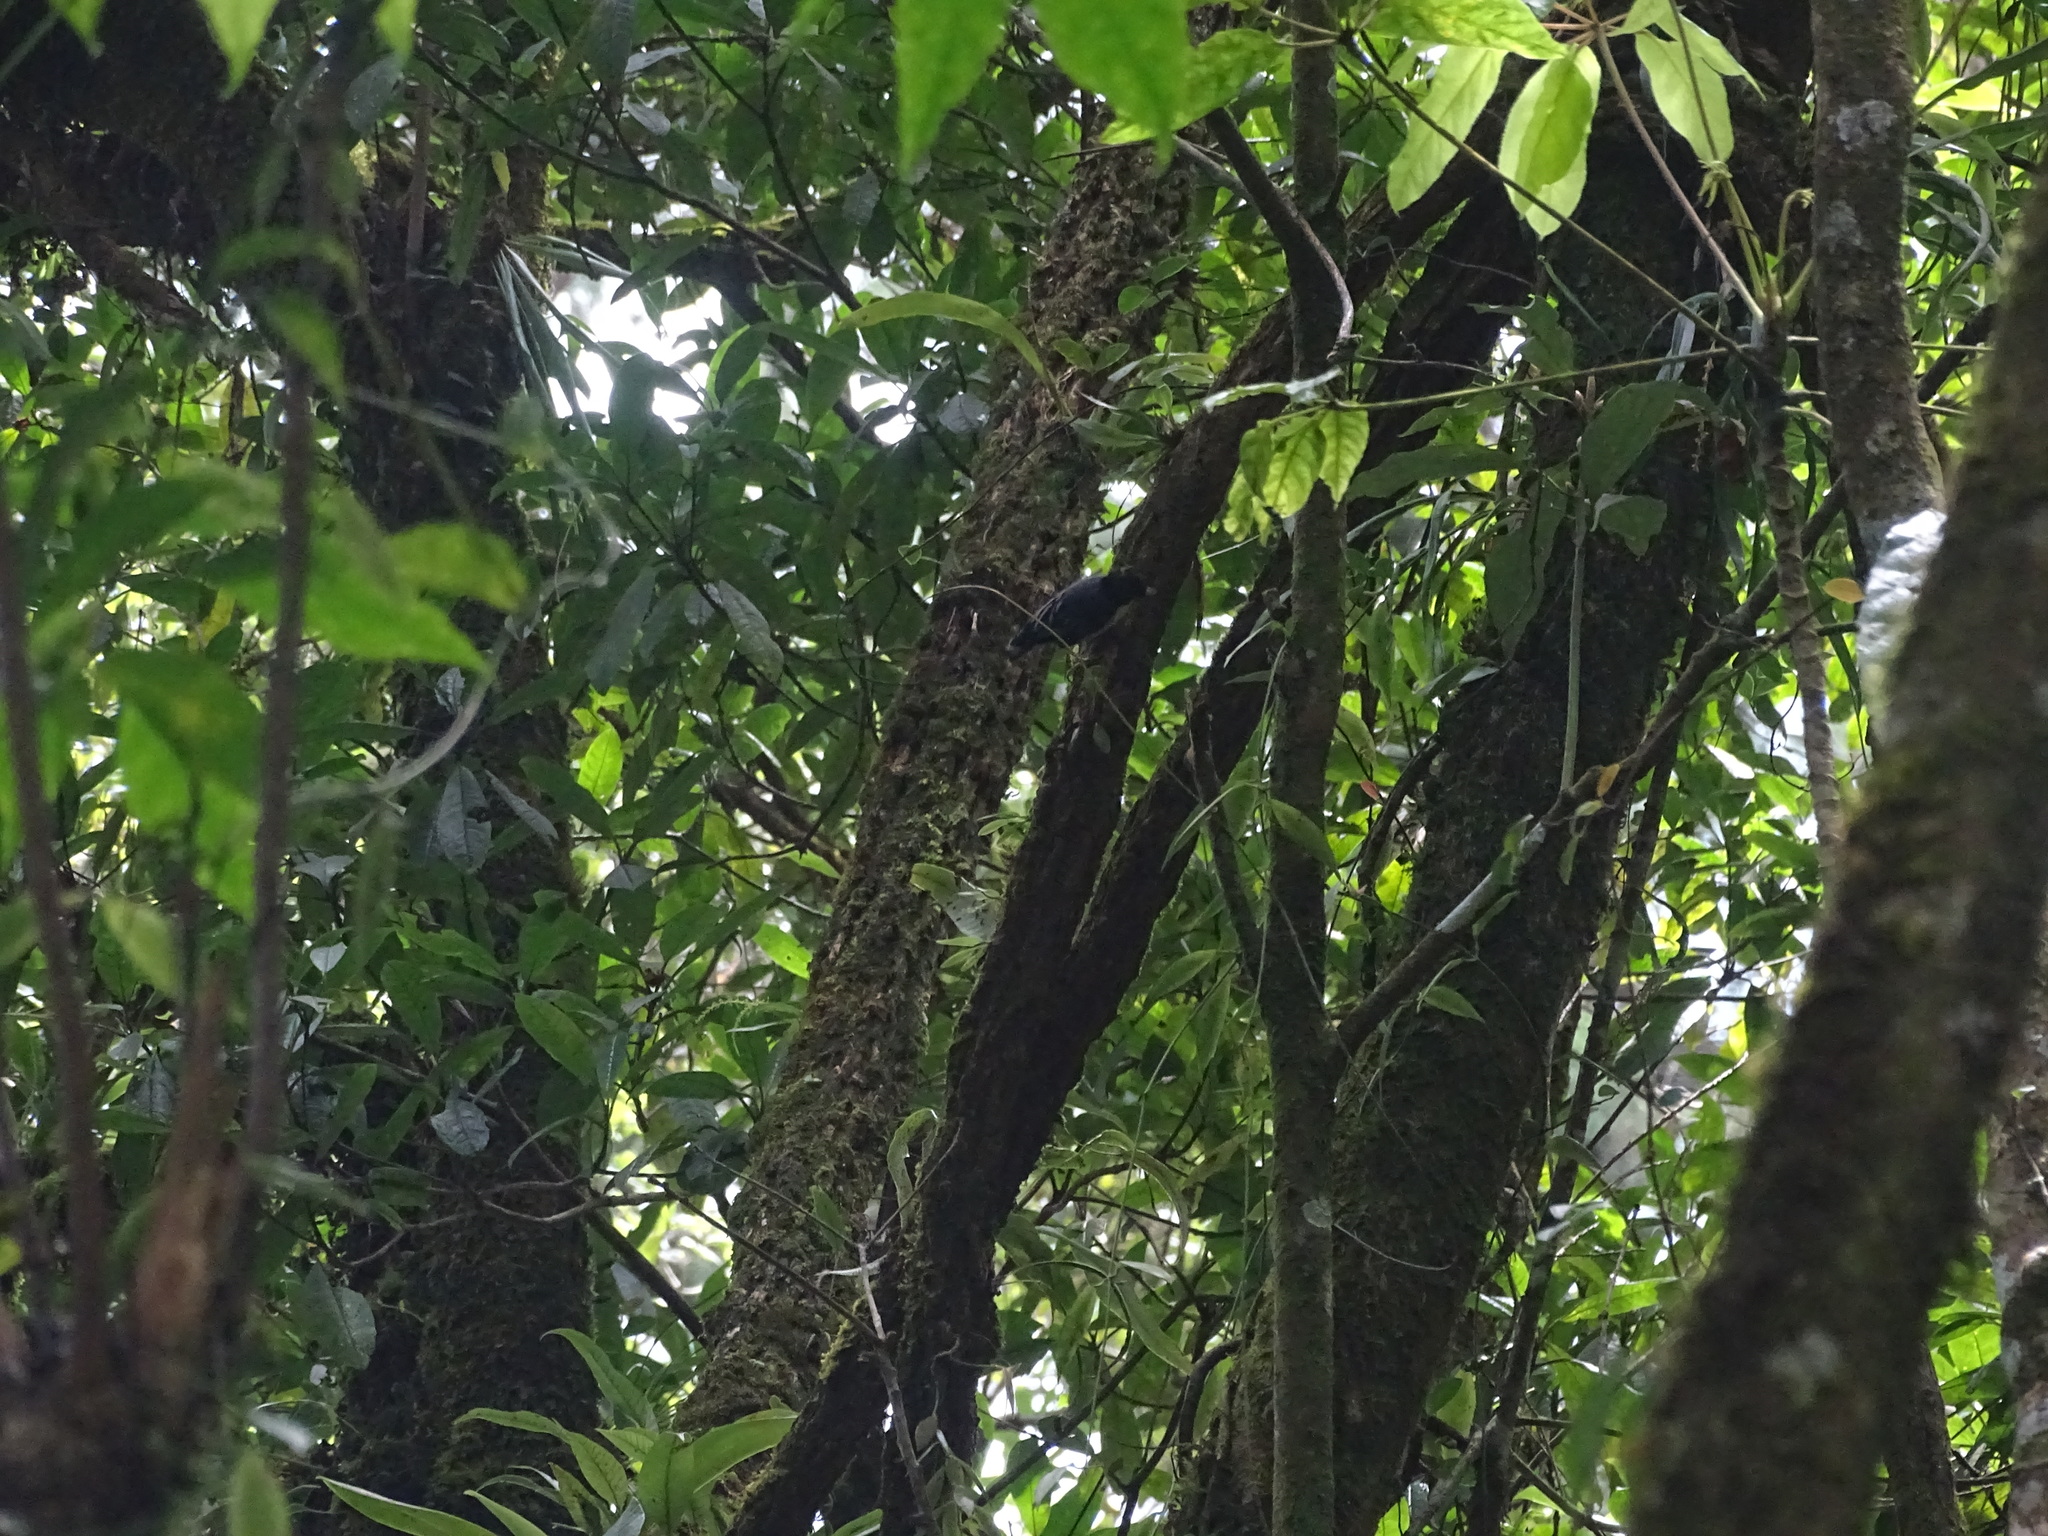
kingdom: Animalia
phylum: Chordata
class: Aves
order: Passeriformes
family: Sittidae
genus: Sitta
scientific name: Sitta azurea
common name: Blue nuthatch
